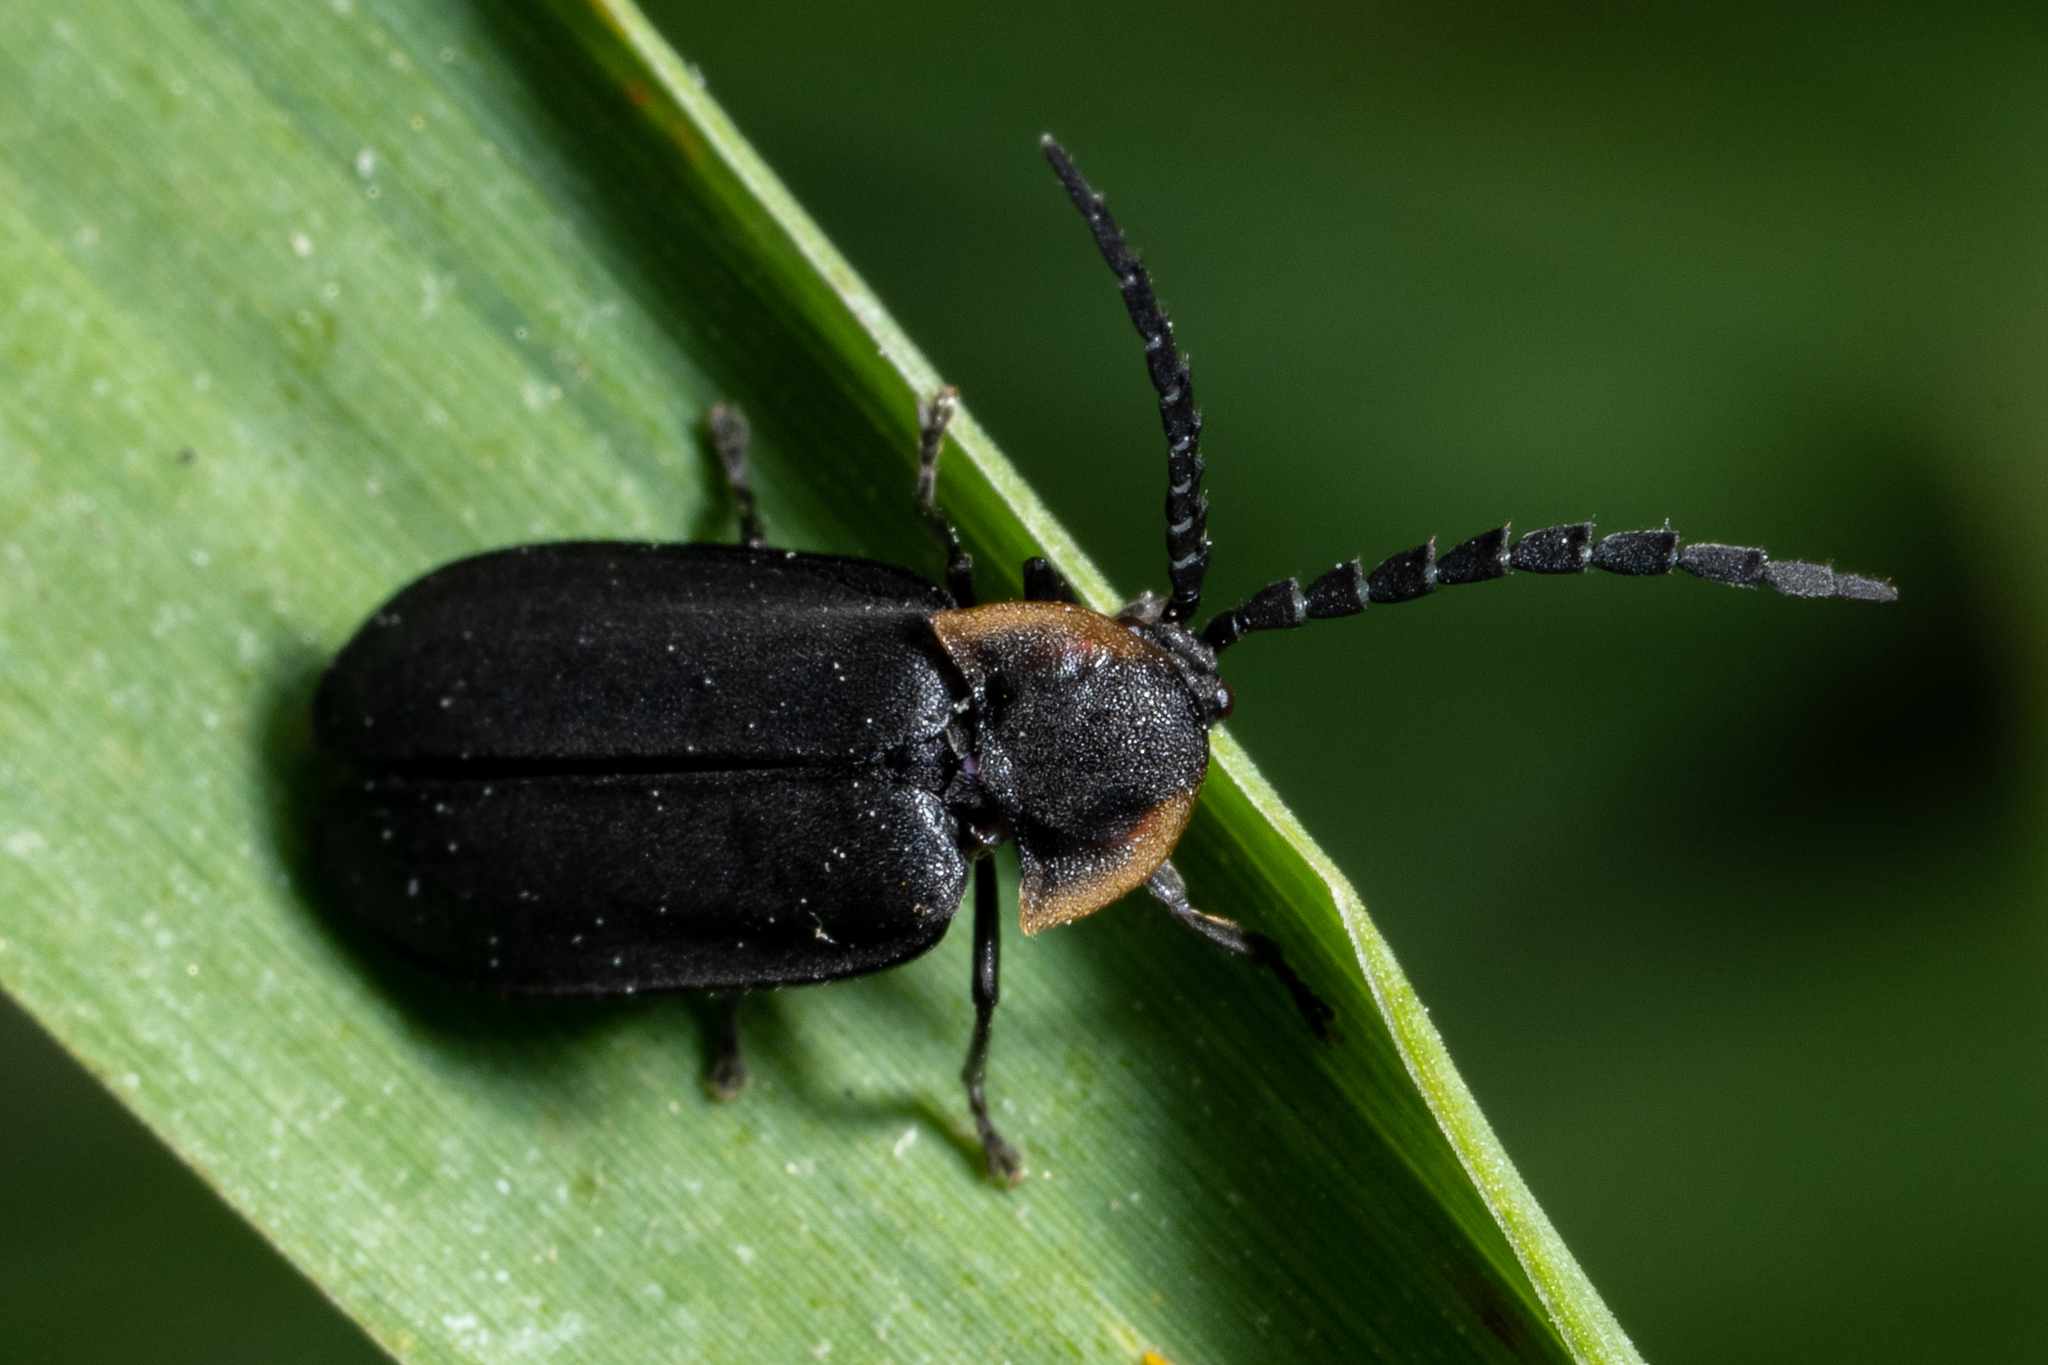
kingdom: Animalia
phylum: Arthropoda
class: Insecta
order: Coleoptera
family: Lampyridae
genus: Lucidota
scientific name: Lucidota atra
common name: Black firefly
